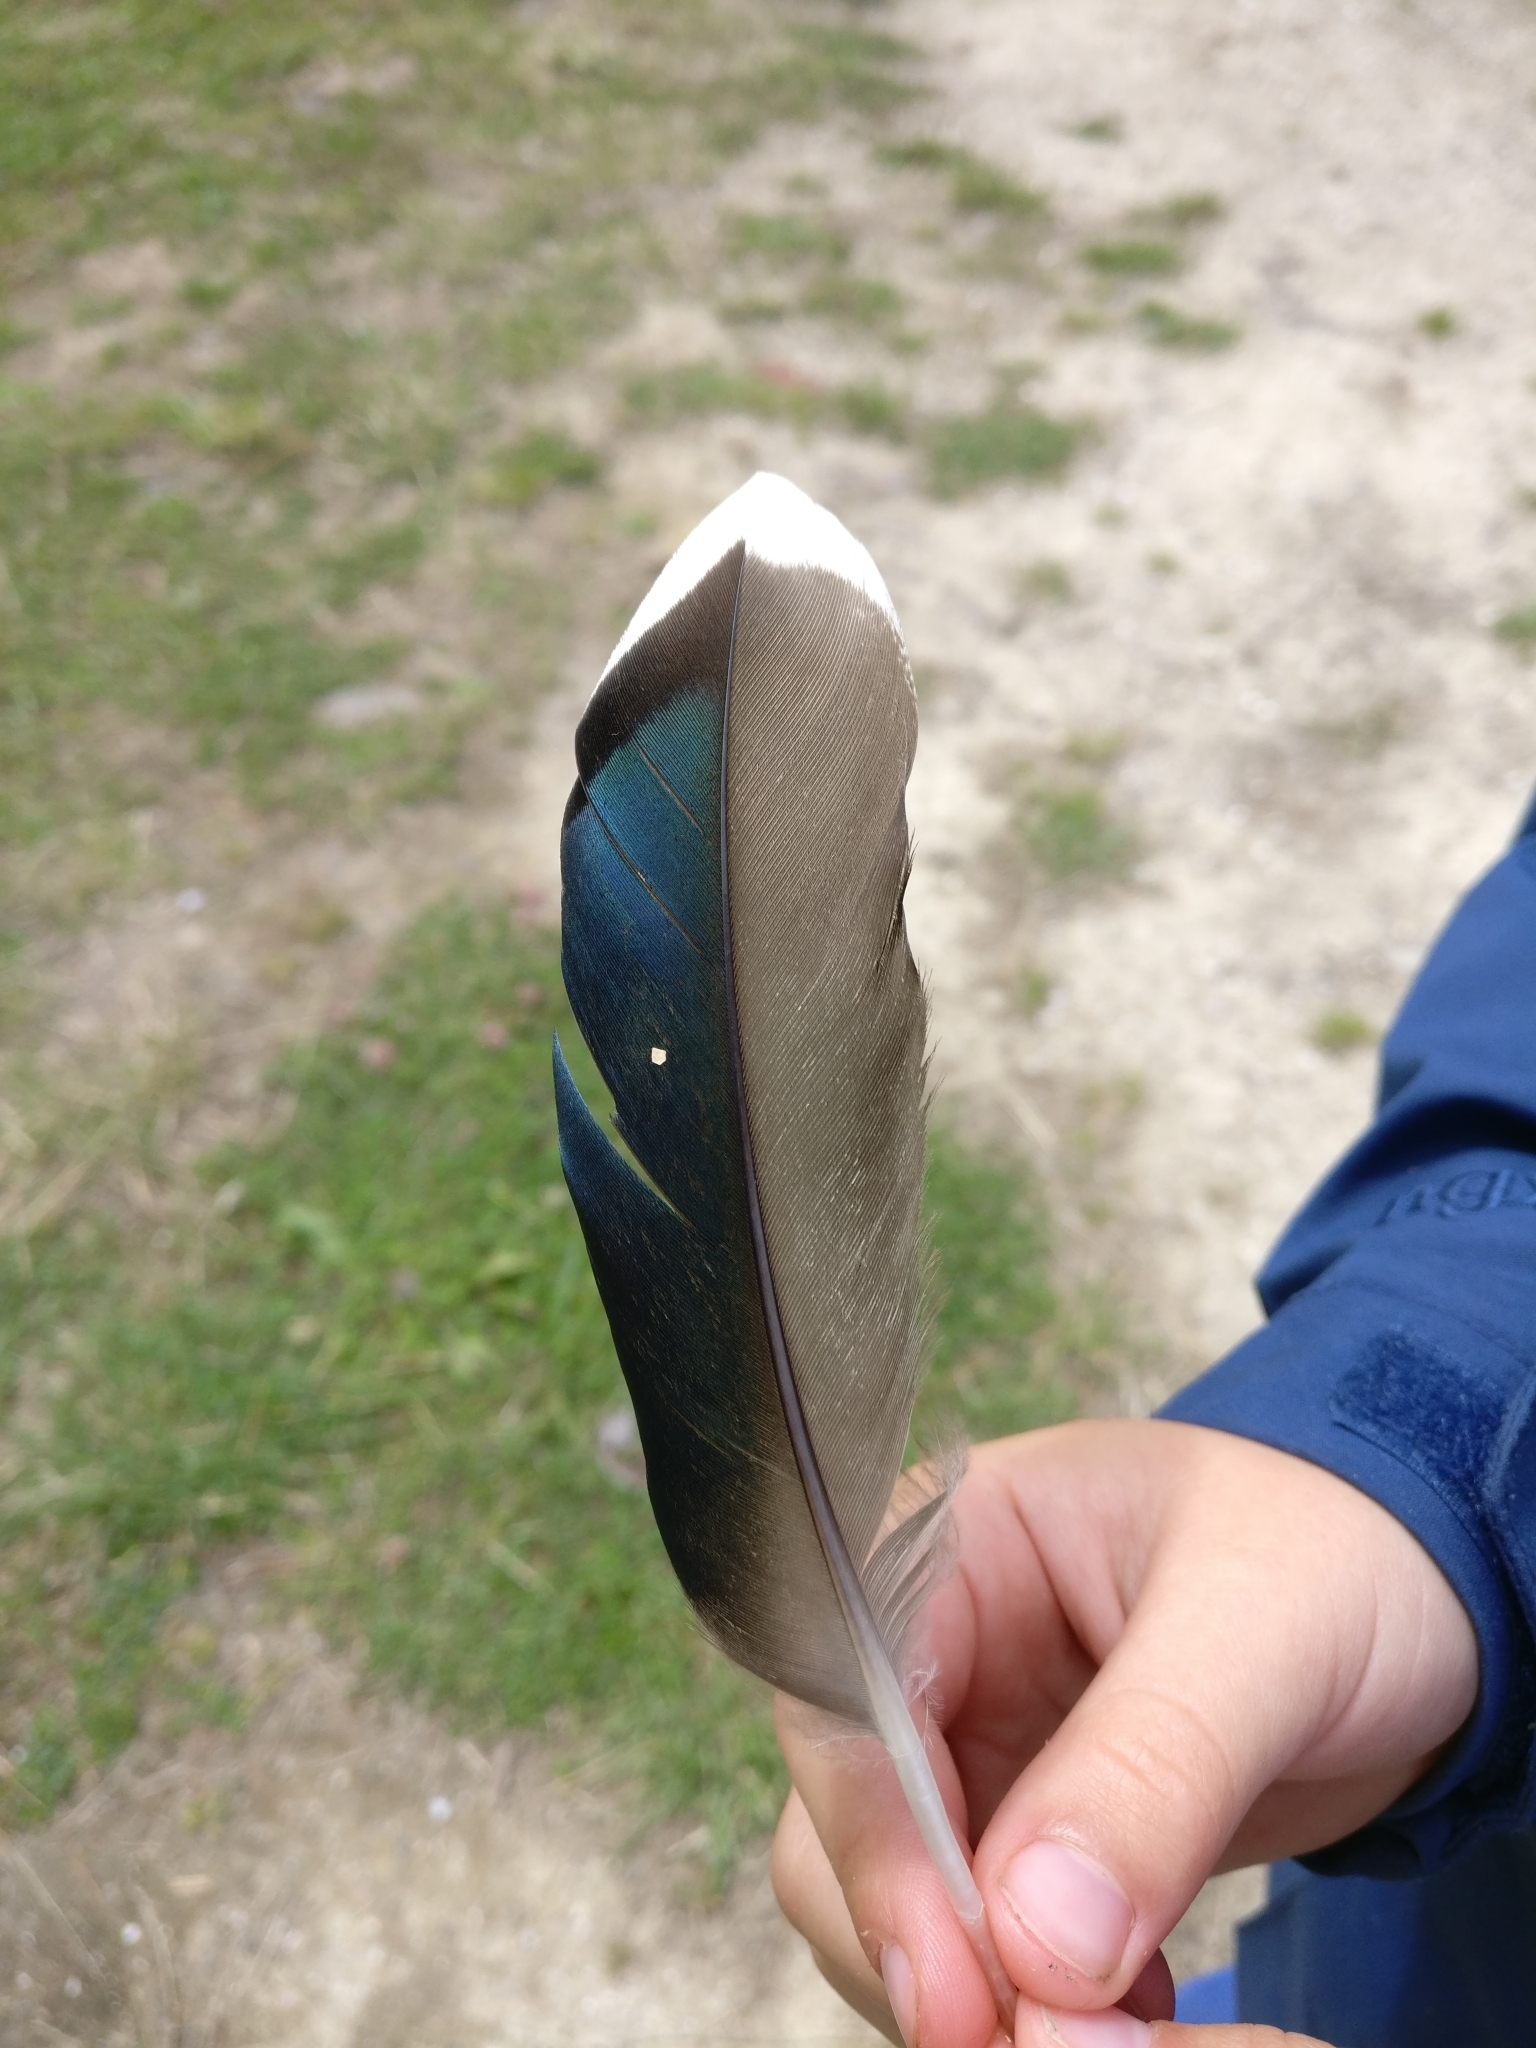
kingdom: Animalia
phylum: Chordata
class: Aves
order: Anseriformes
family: Anatidae
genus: Anas
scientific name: Anas platyrhynchos
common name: Mallard
